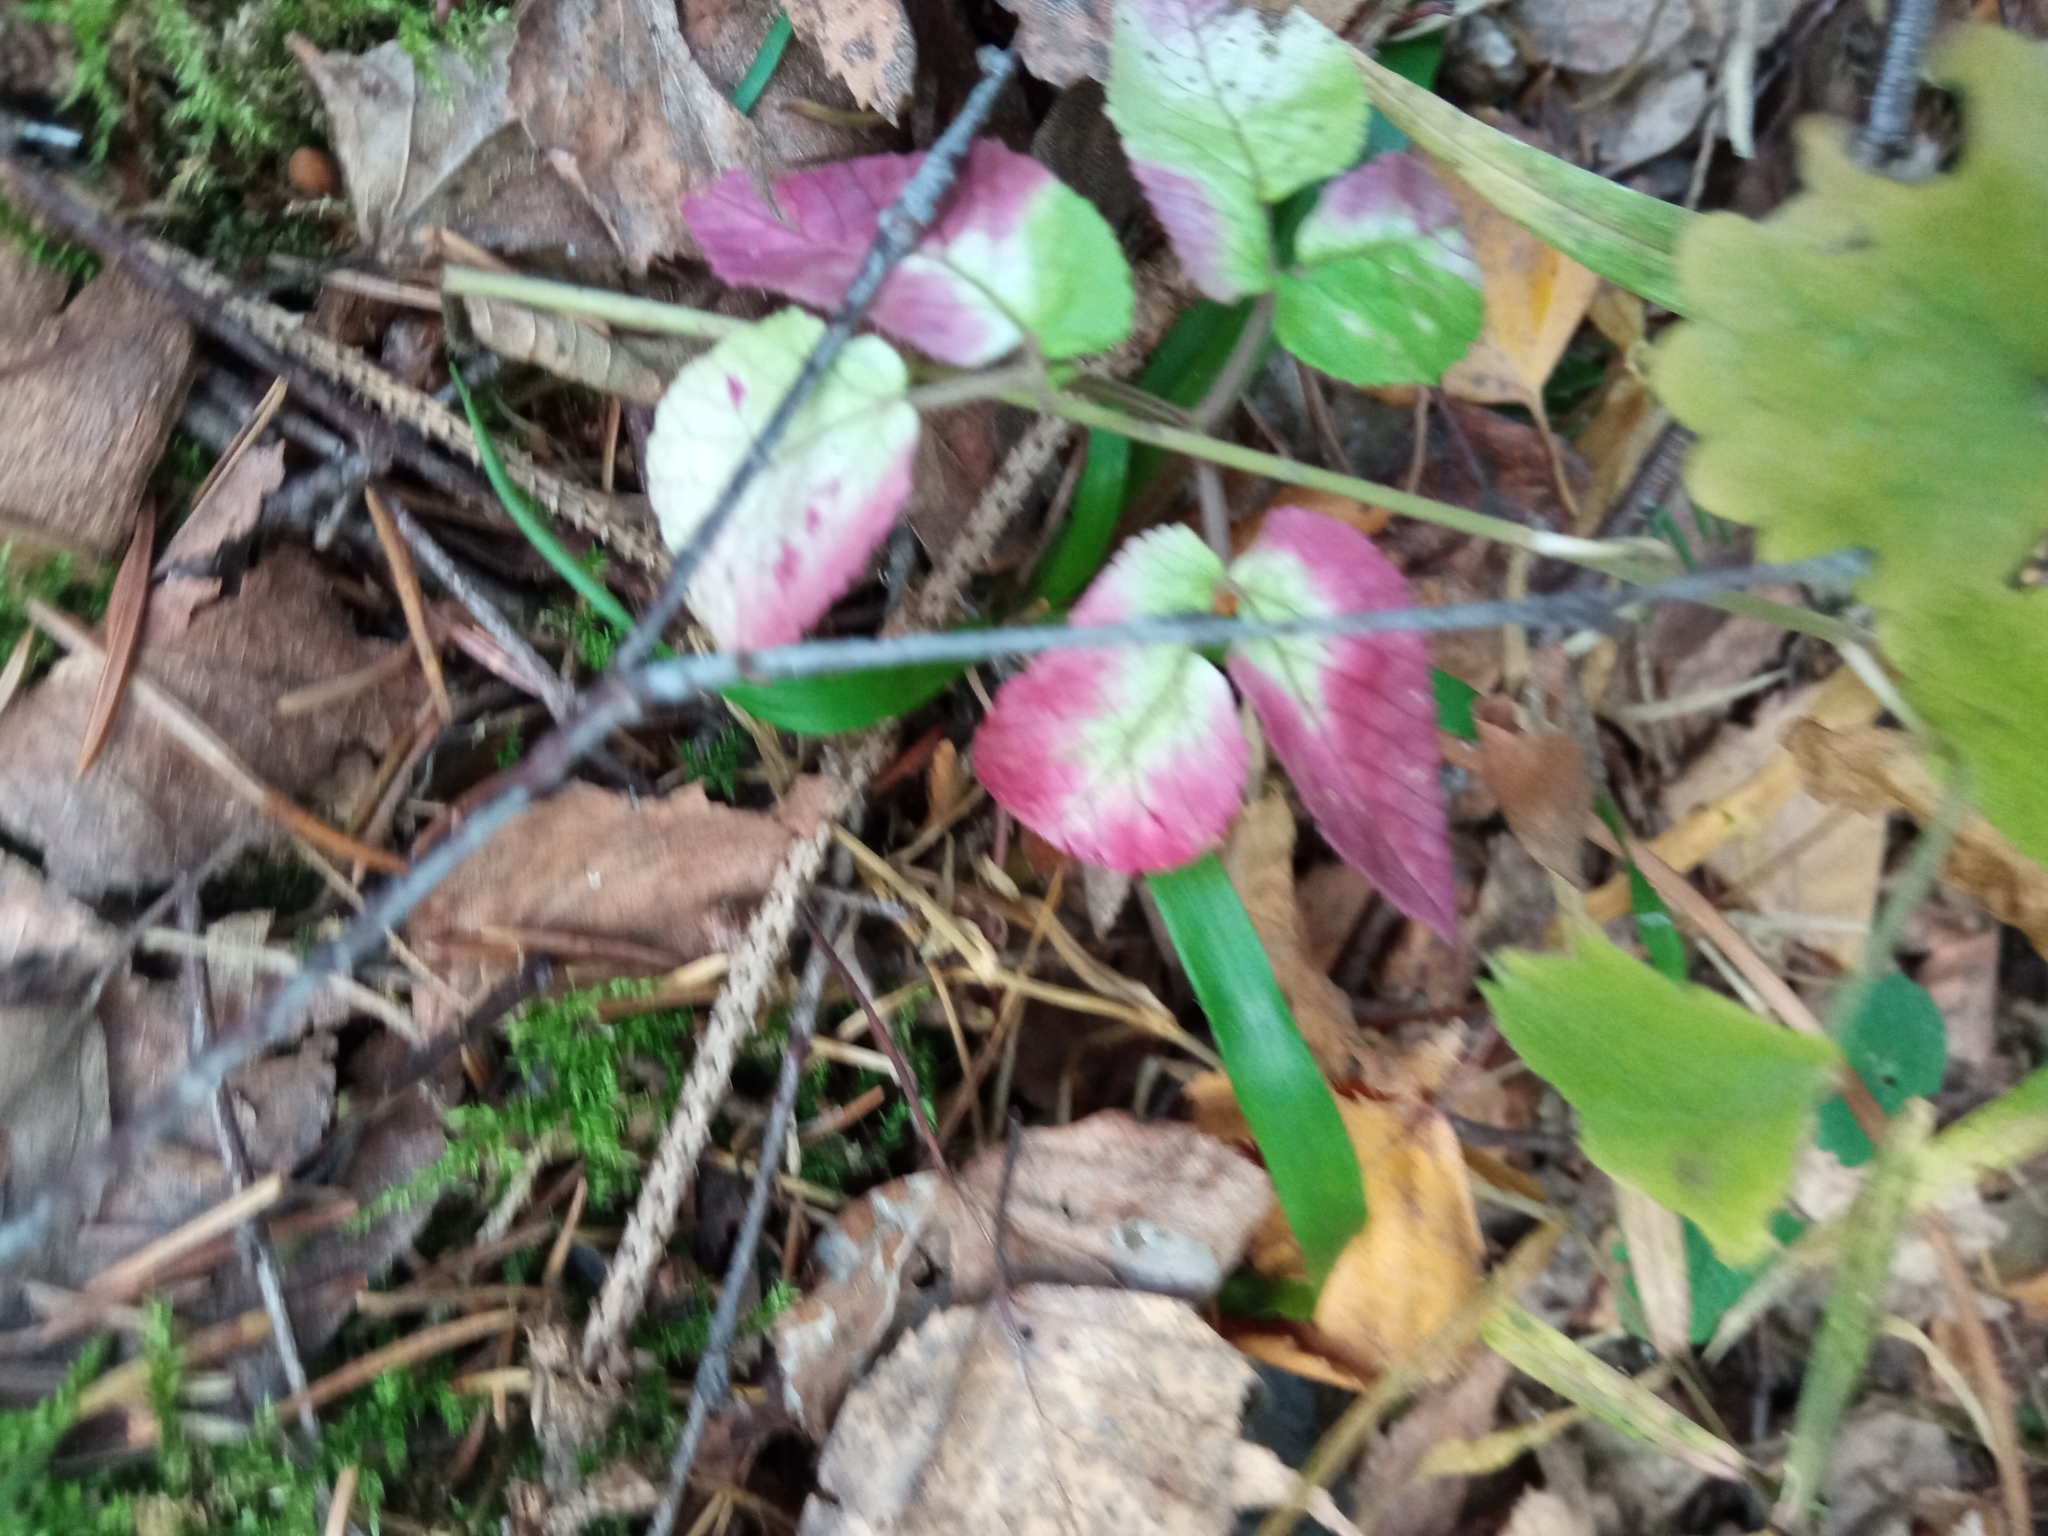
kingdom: Plantae
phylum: Tracheophyta
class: Magnoliopsida
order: Apiales
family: Apiaceae
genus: Aegopodium
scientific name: Aegopodium podagraria
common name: Ground-elder
